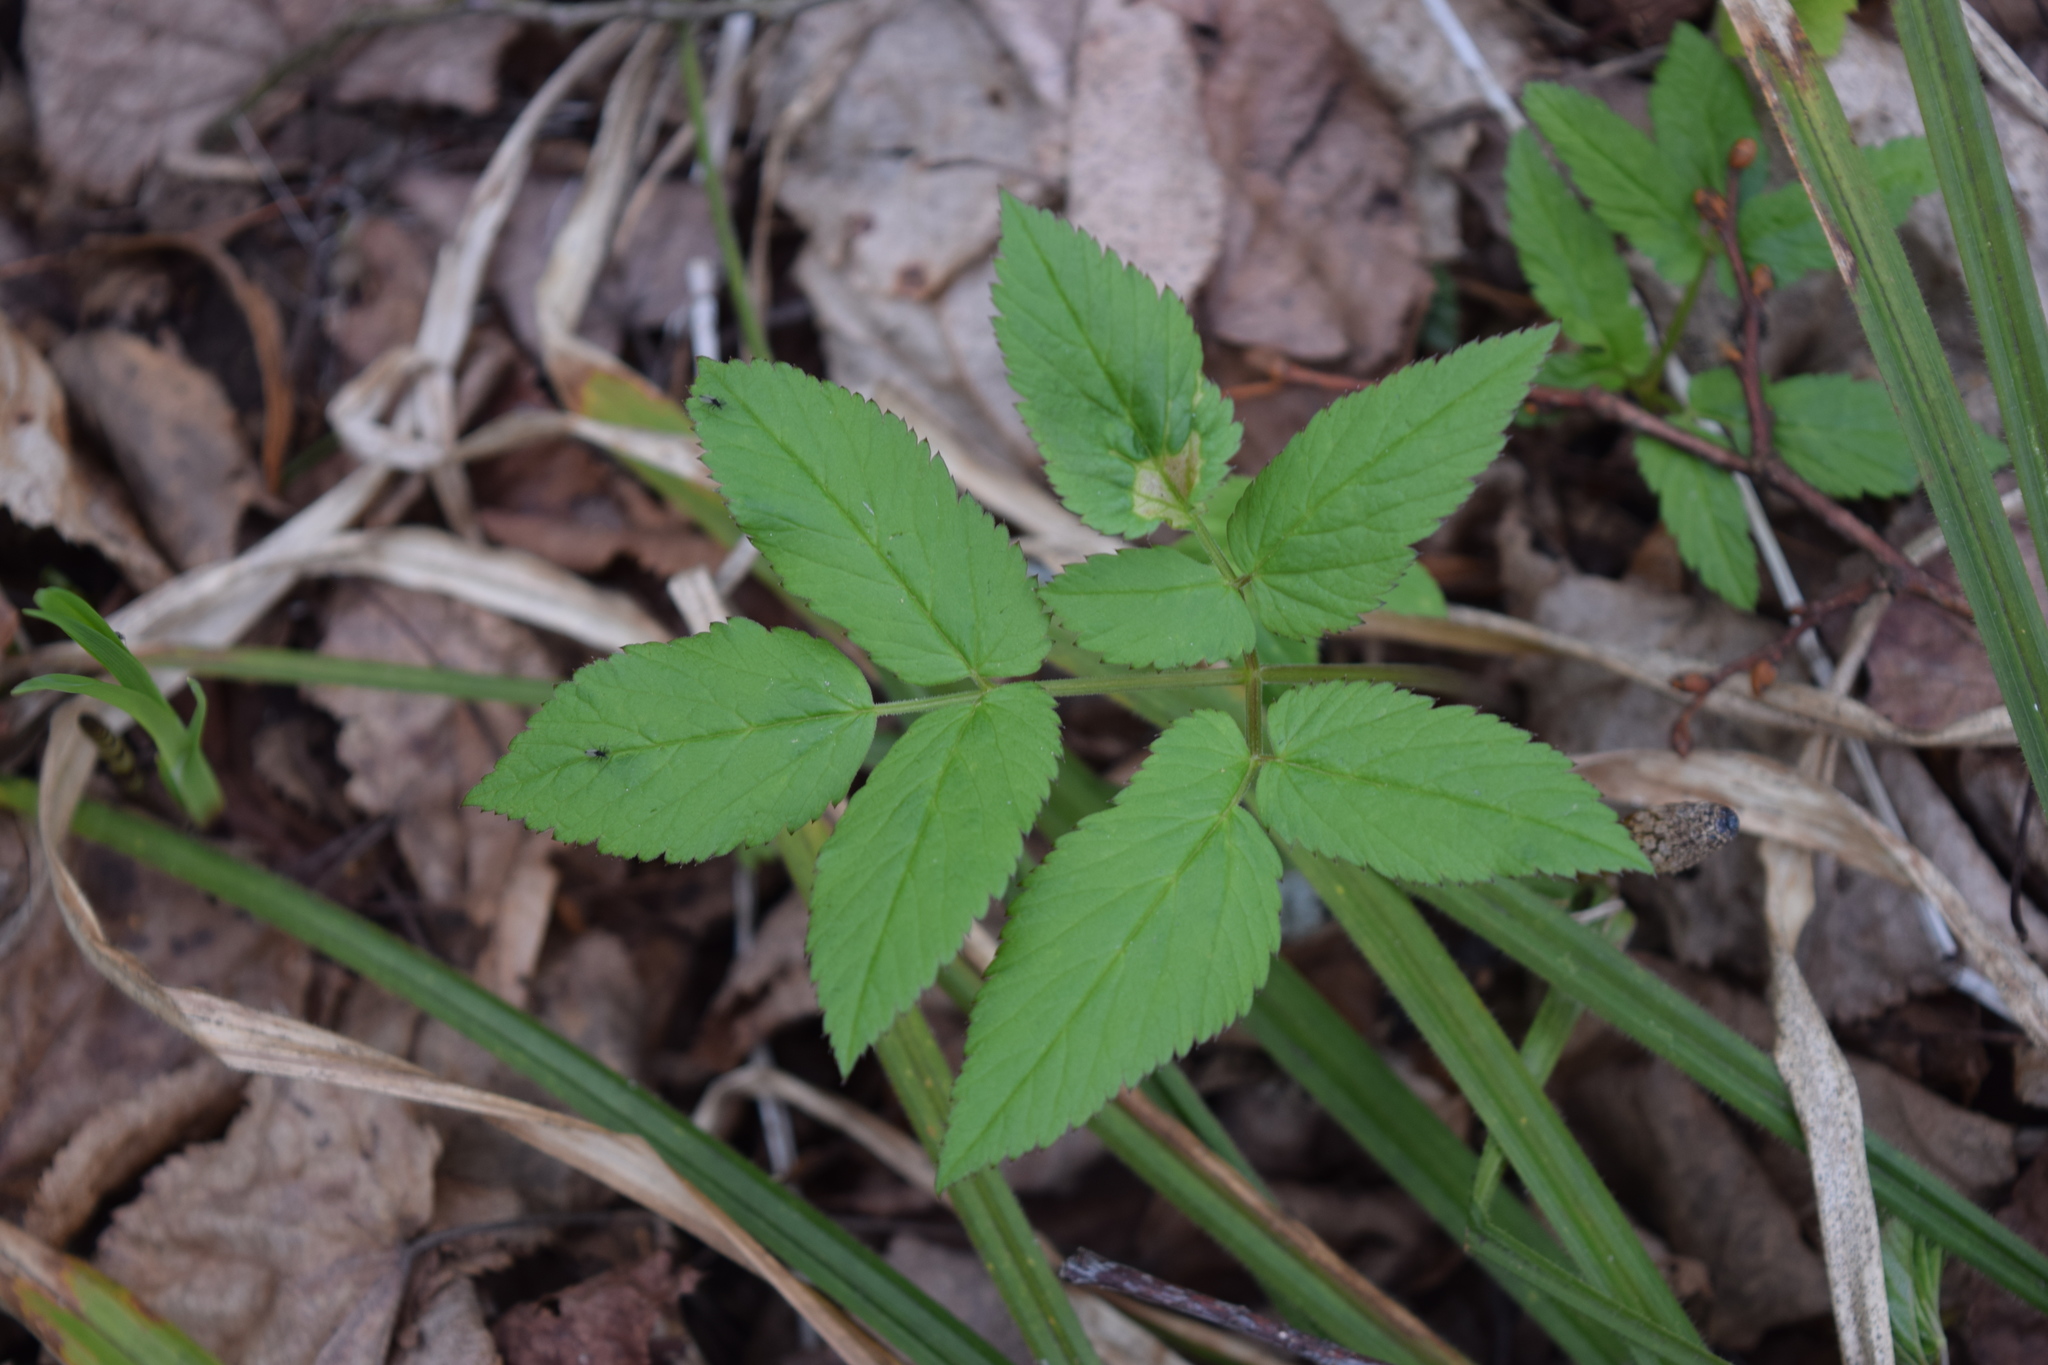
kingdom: Plantae
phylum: Tracheophyta
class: Magnoliopsida
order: Apiales
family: Apiaceae
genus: Aegopodium
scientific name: Aegopodium podagraria
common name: Ground-elder
